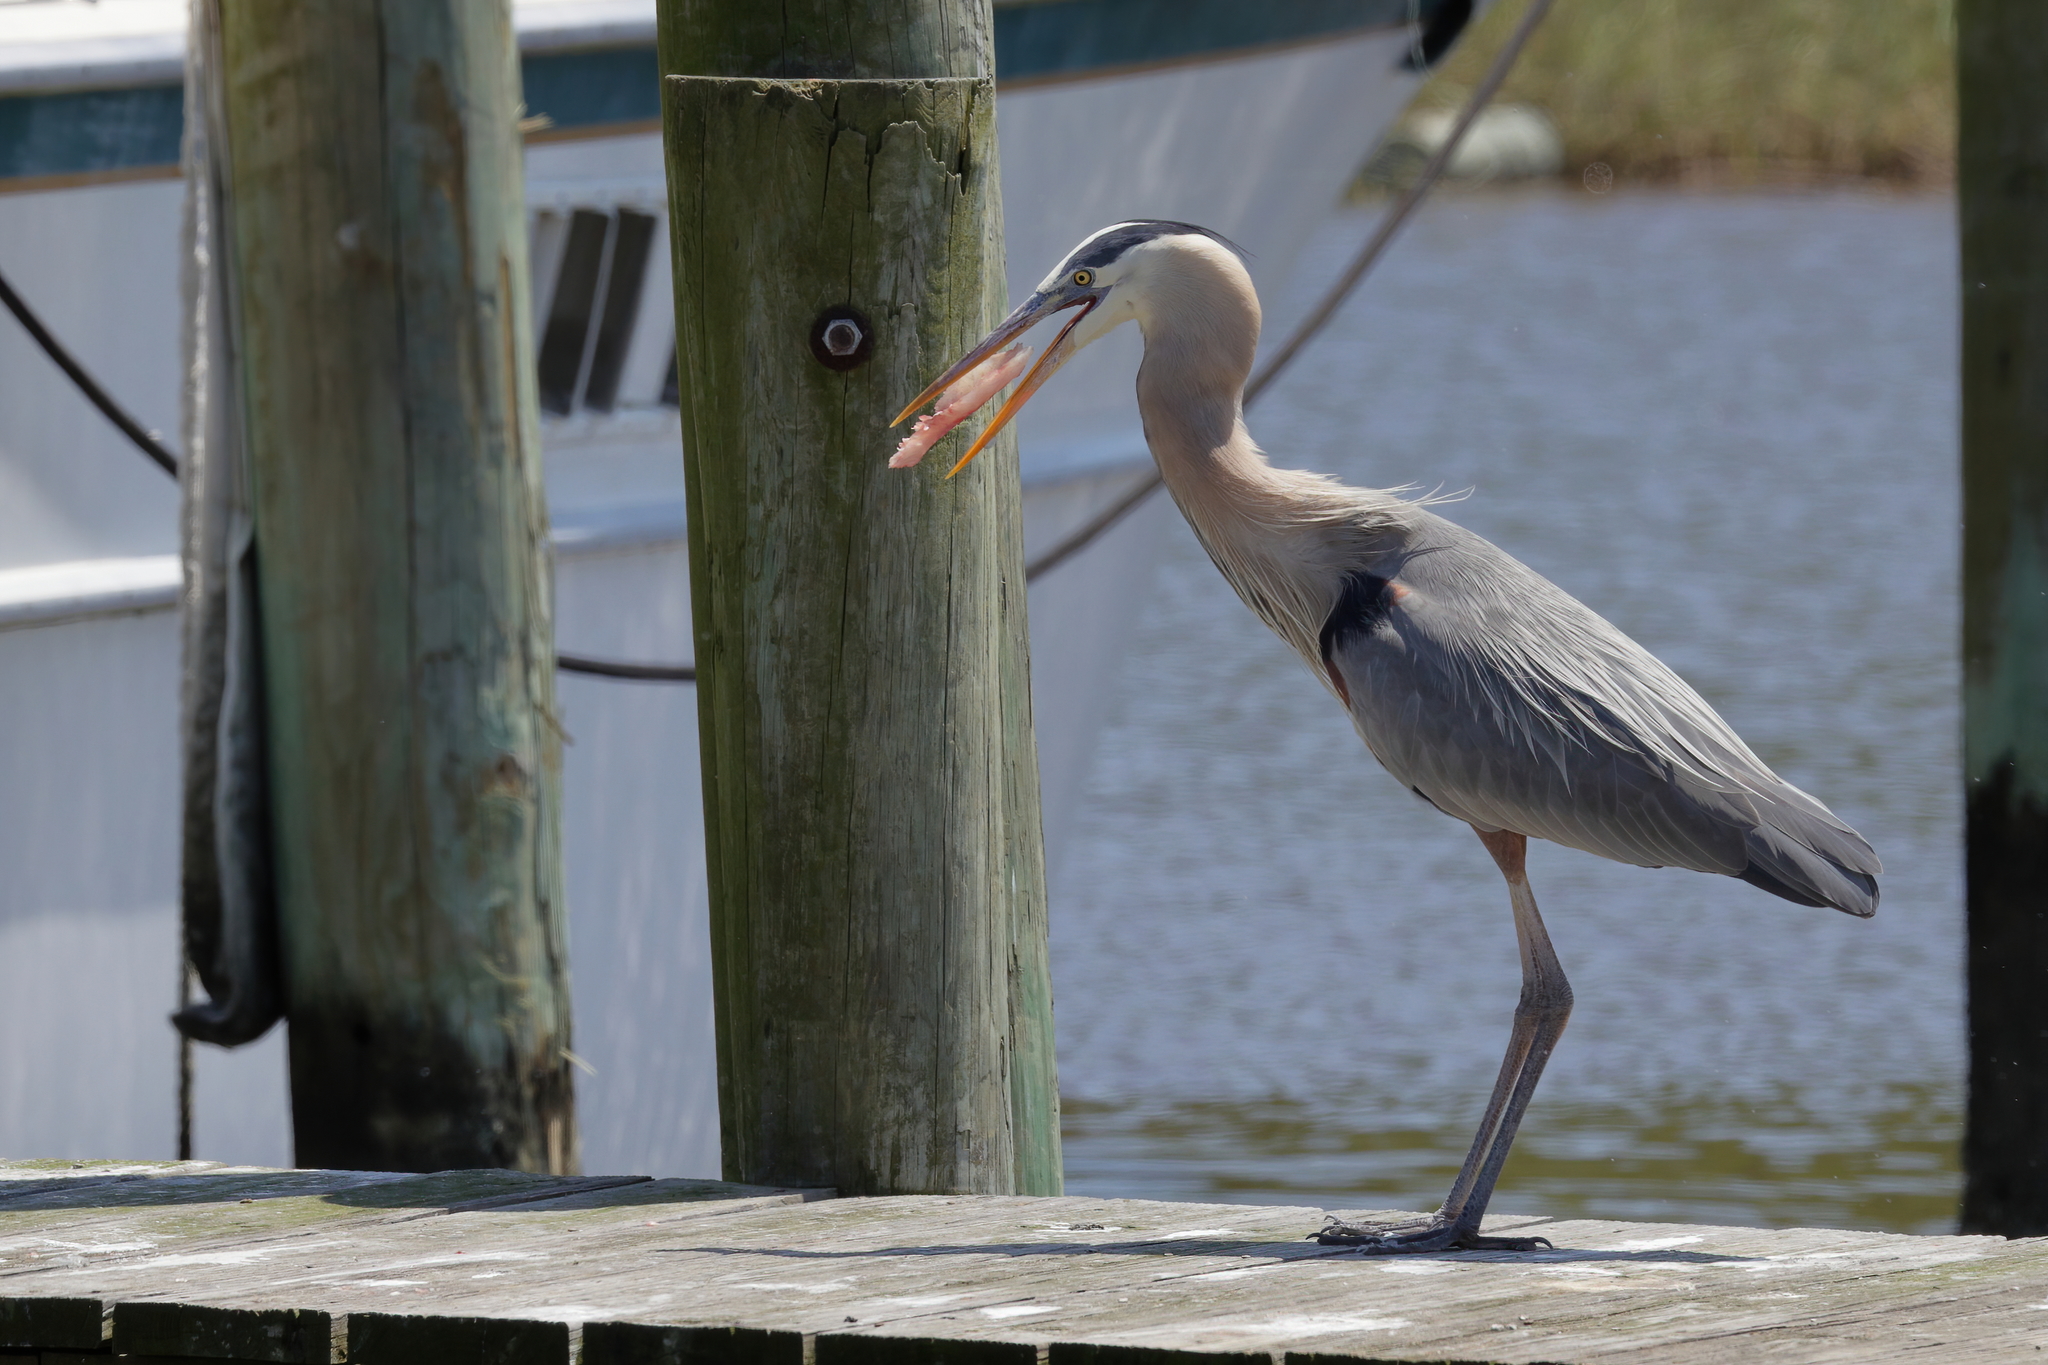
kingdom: Animalia
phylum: Chordata
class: Aves
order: Pelecaniformes
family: Ardeidae
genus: Ardea
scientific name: Ardea herodias
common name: Great blue heron
